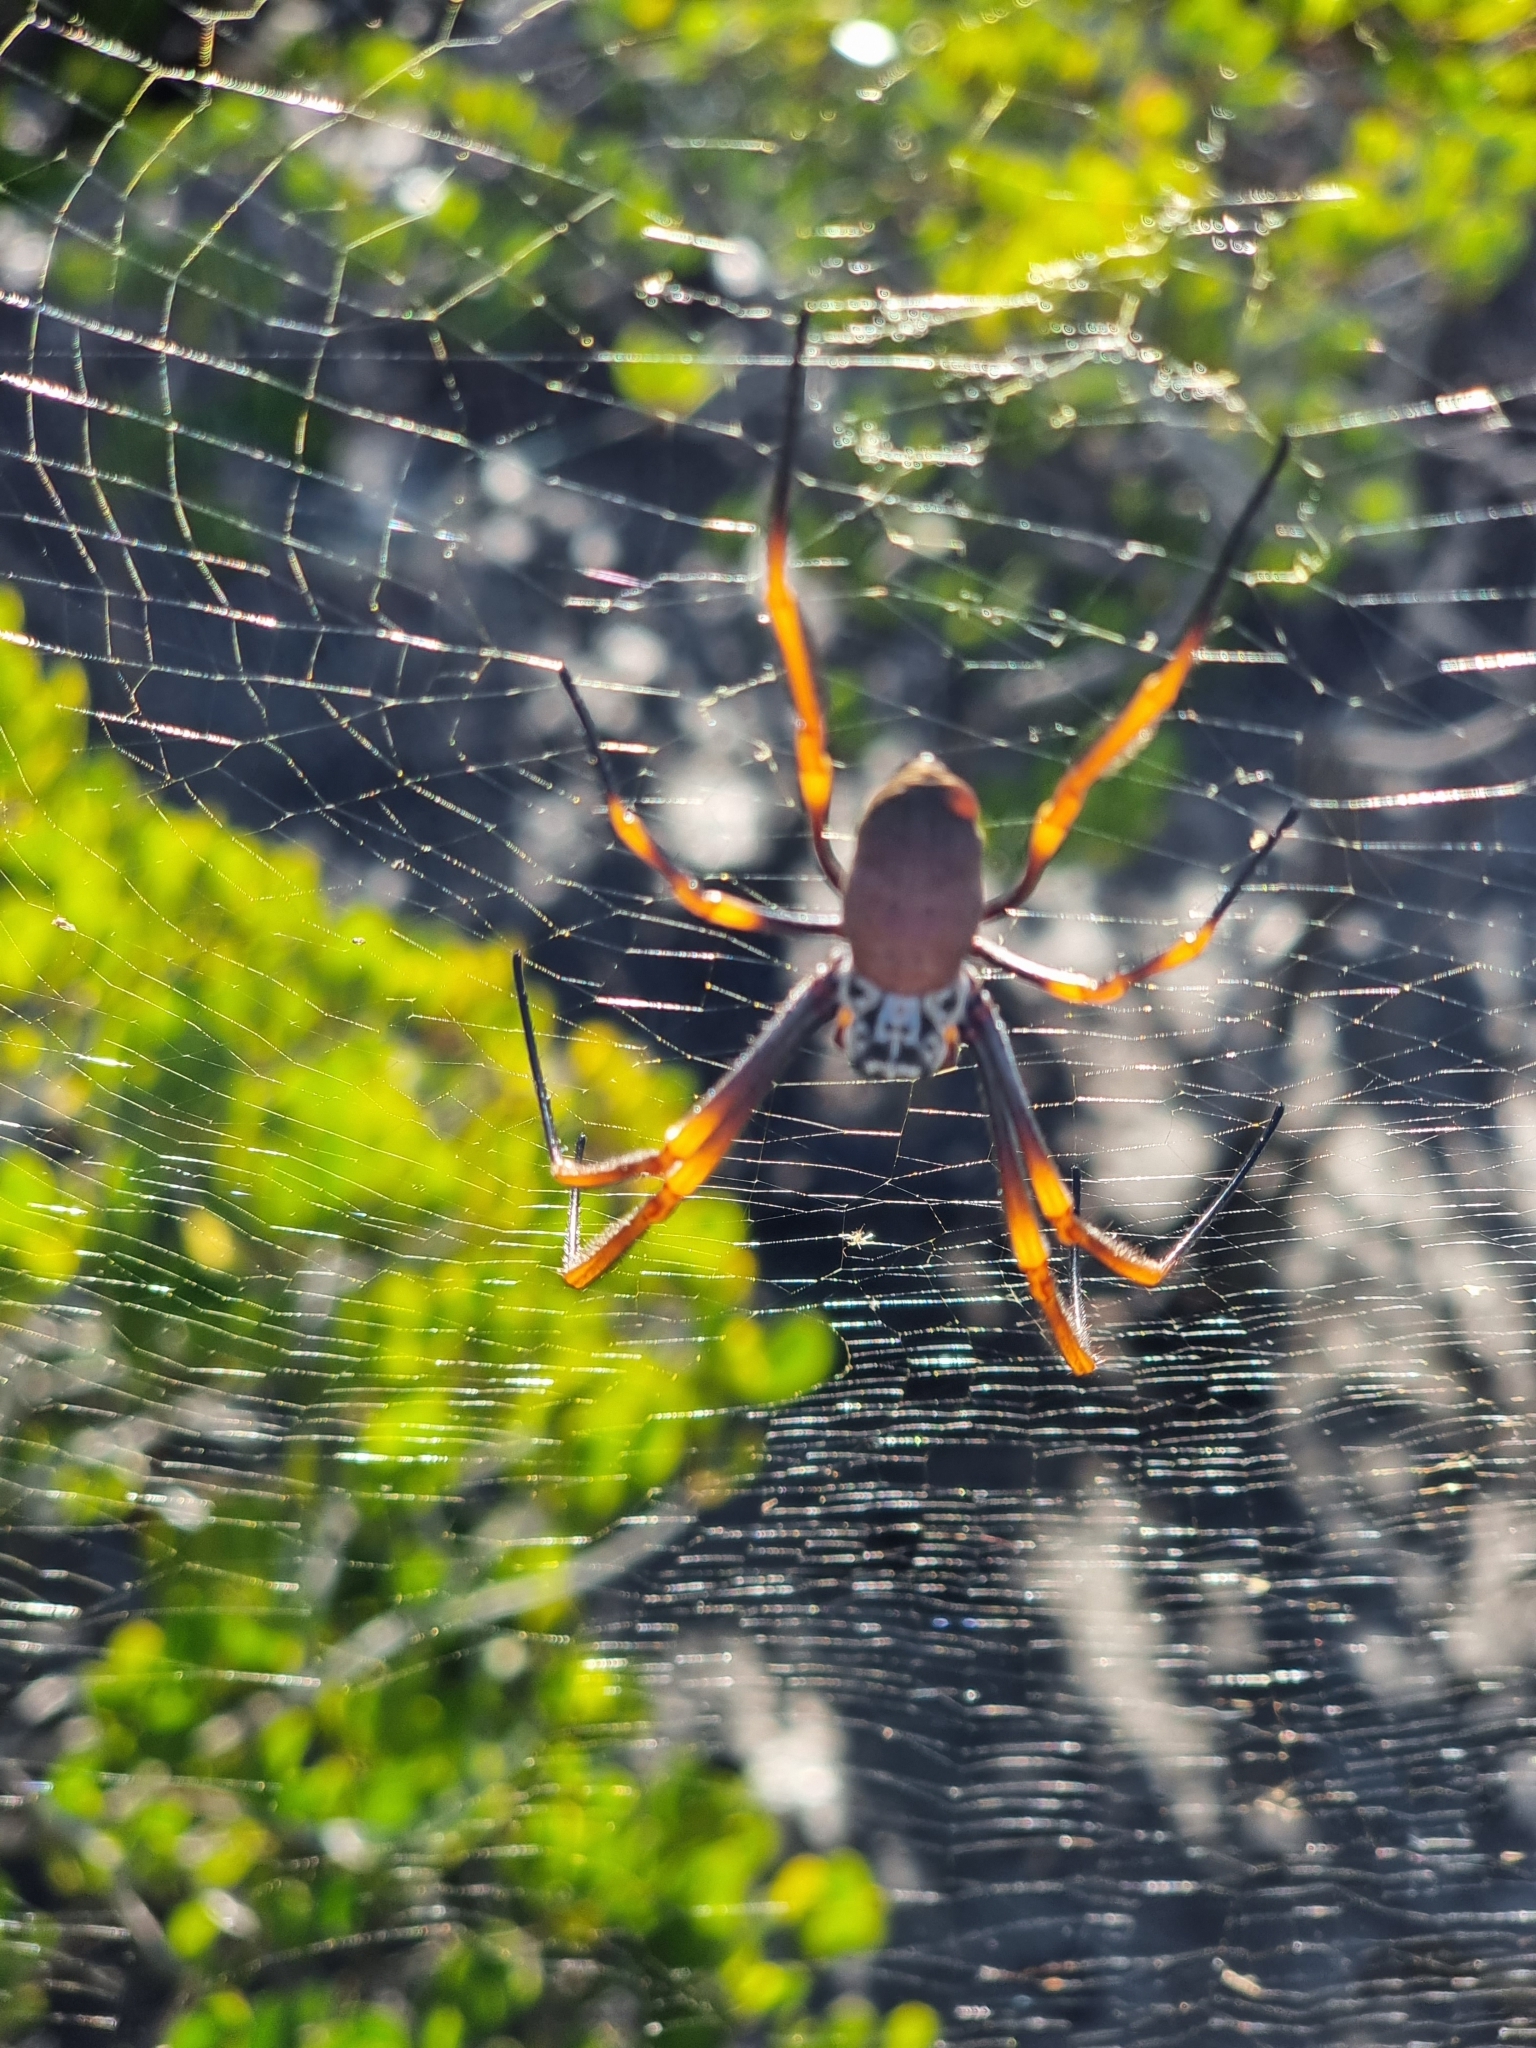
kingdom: Animalia
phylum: Arthropoda
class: Arachnida
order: Araneae
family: Araneidae
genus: Trichonephila
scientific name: Trichonephila plumipes
